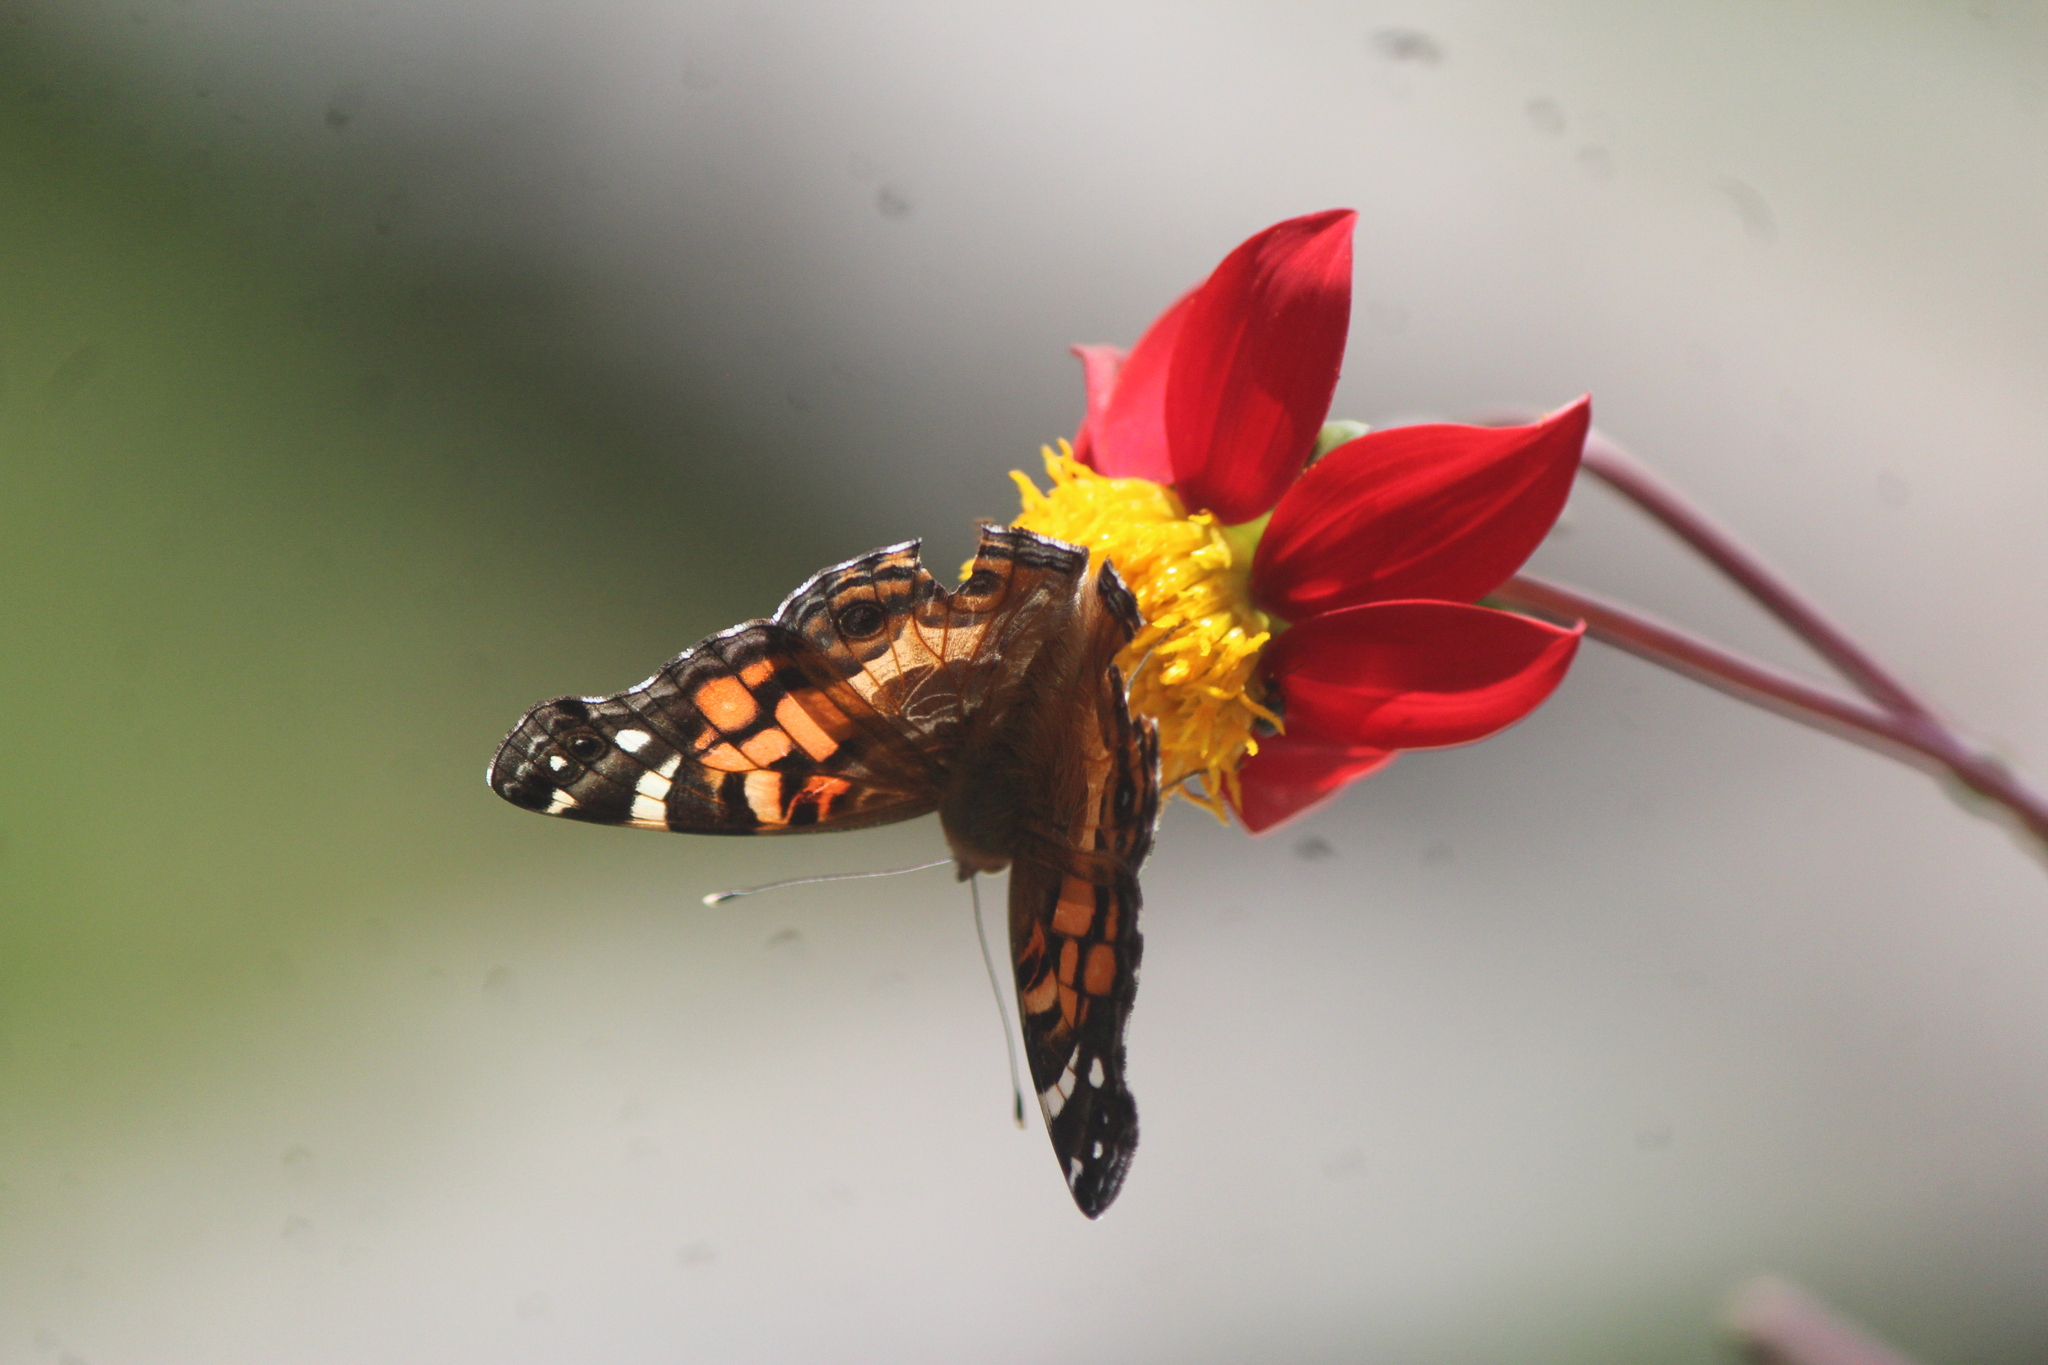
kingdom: Animalia
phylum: Arthropoda
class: Insecta
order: Lepidoptera
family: Nymphalidae
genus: Vanessa
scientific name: Vanessa virginiensis
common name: American lady
